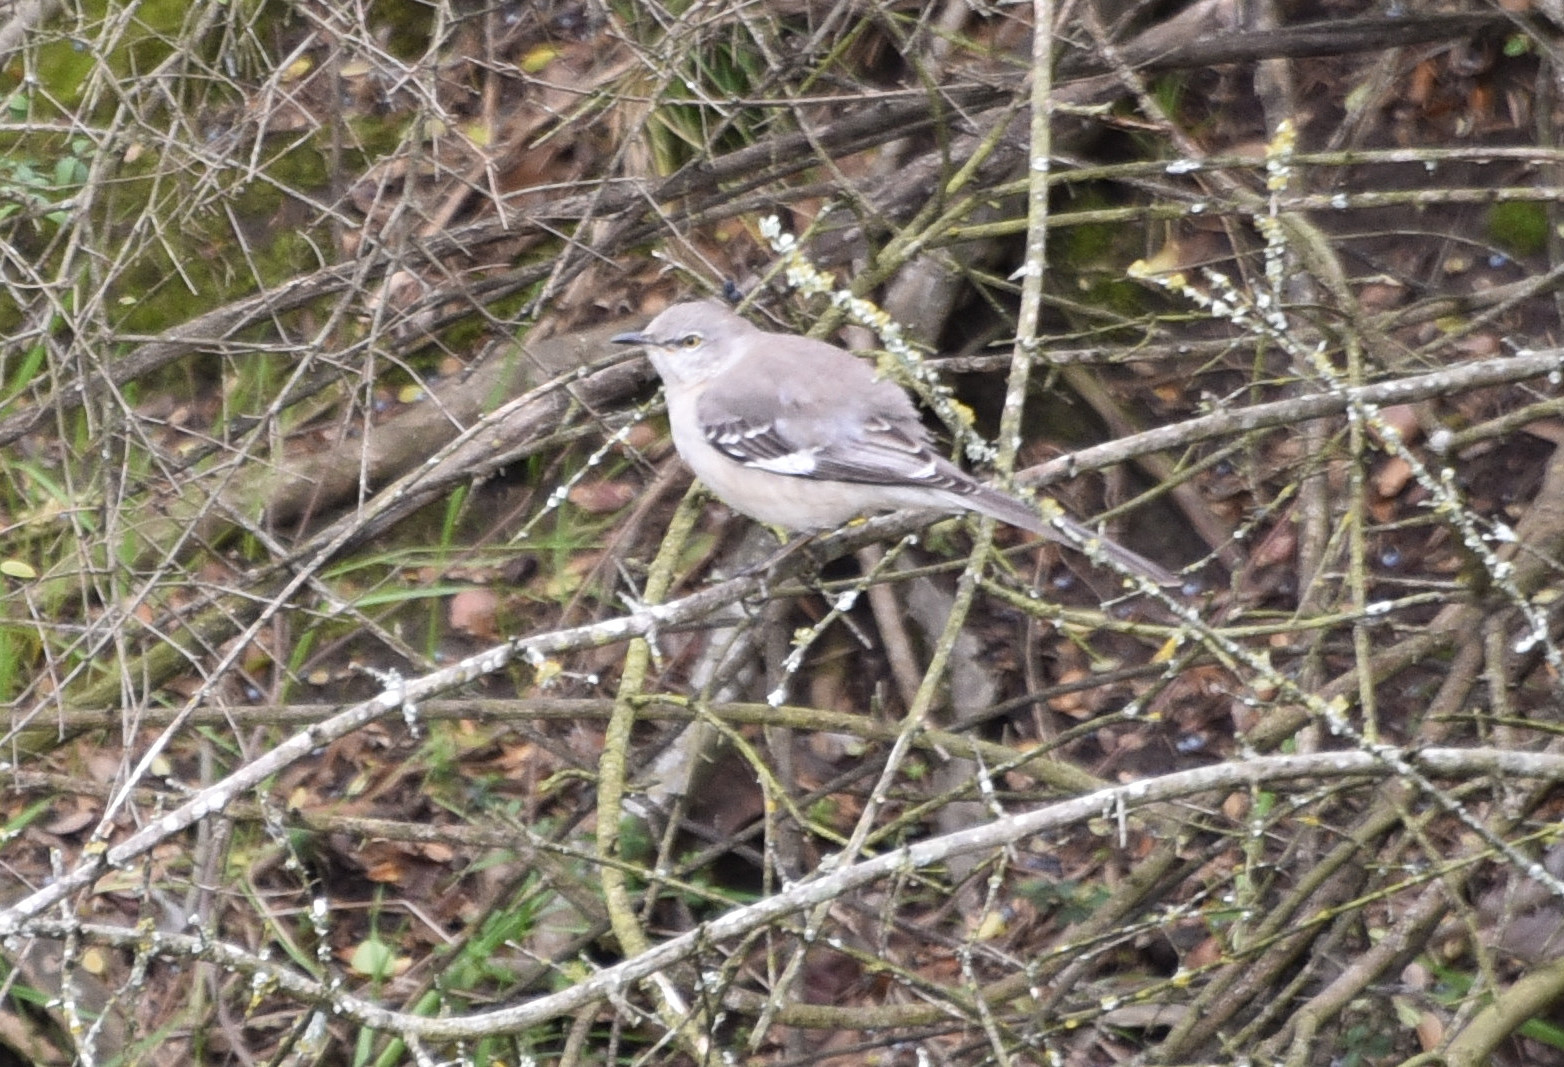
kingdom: Animalia
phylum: Chordata
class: Aves
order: Passeriformes
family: Mimidae
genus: Mimus
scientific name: Mimus polyglottos
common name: Northern mockingbird
